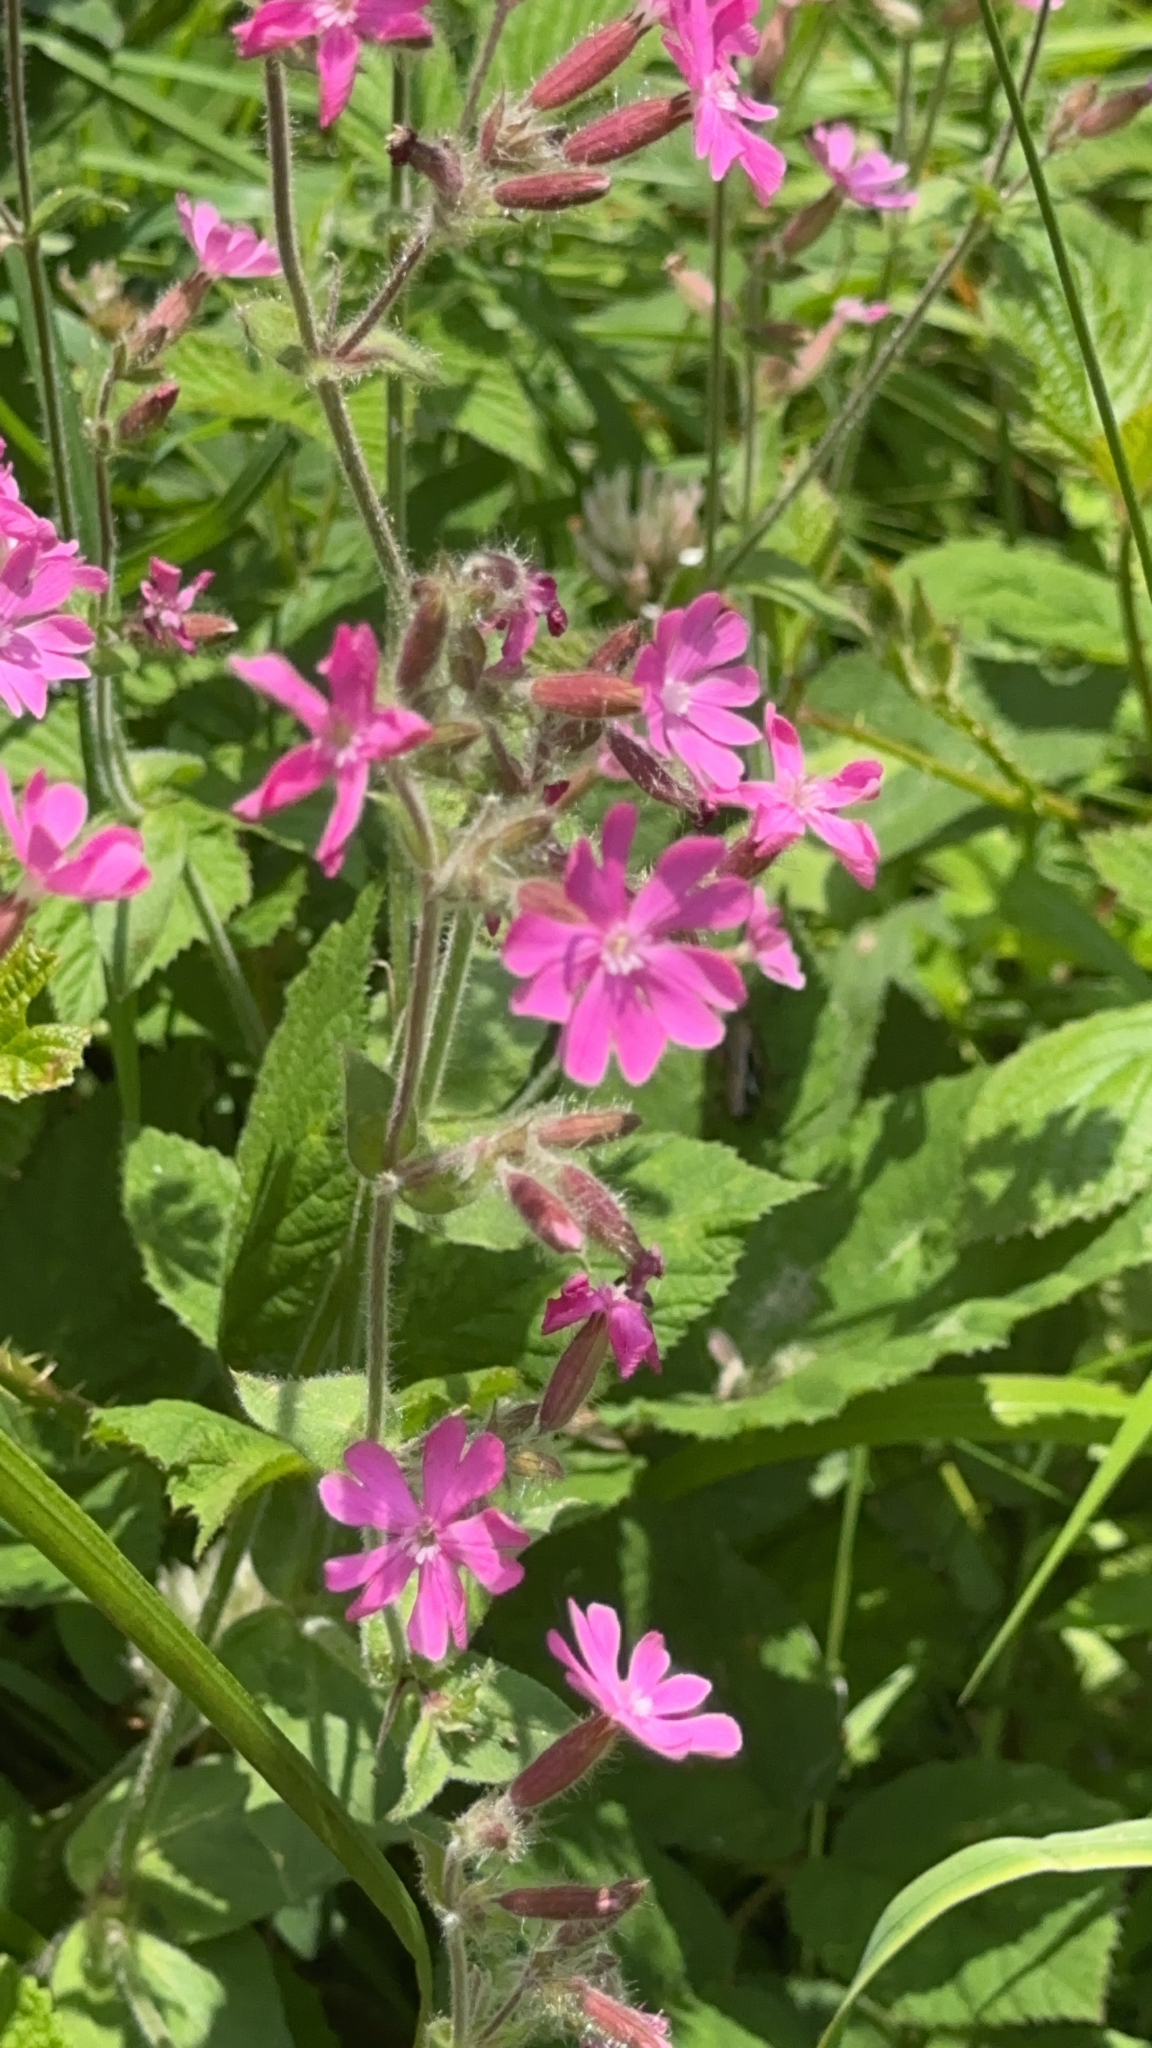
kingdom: Plantae
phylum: Tracheophyta
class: Magnoliopsida
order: Caryophyllales
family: Caryophyllaceae
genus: Silene
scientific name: Silene dioica
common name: Red campion
